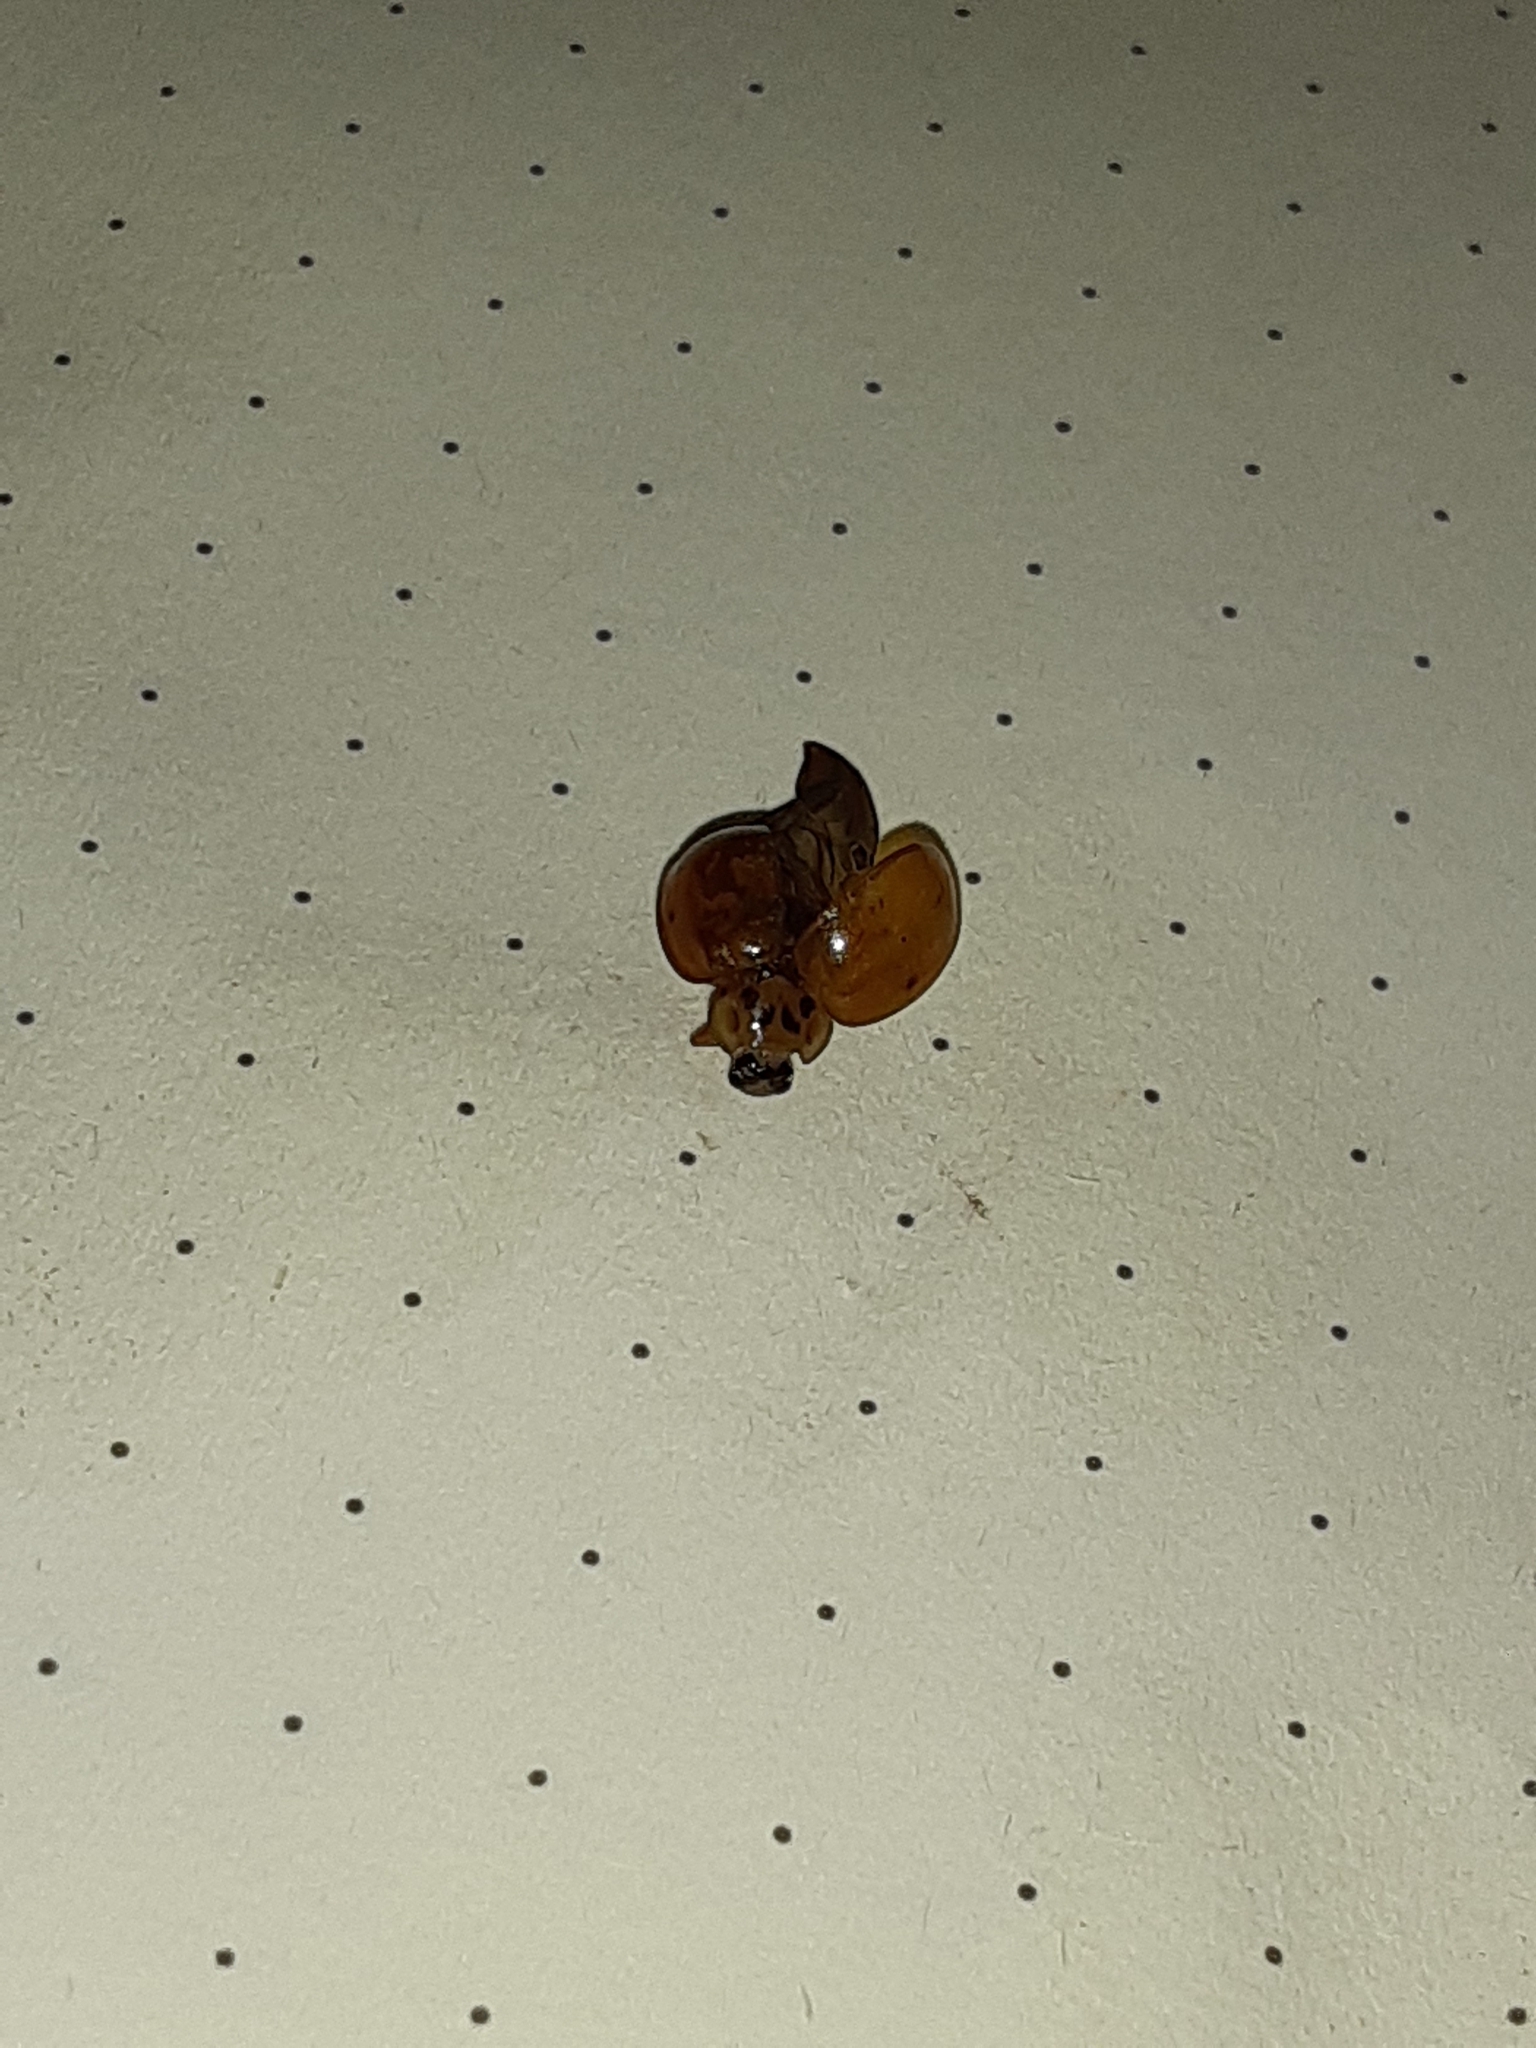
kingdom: Animalia
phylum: Arthropoda
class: Insecta
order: Coleoptera
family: Coccinellidae
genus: Harmonia
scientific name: Harmonia axyridis
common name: Harlequin ladybird
